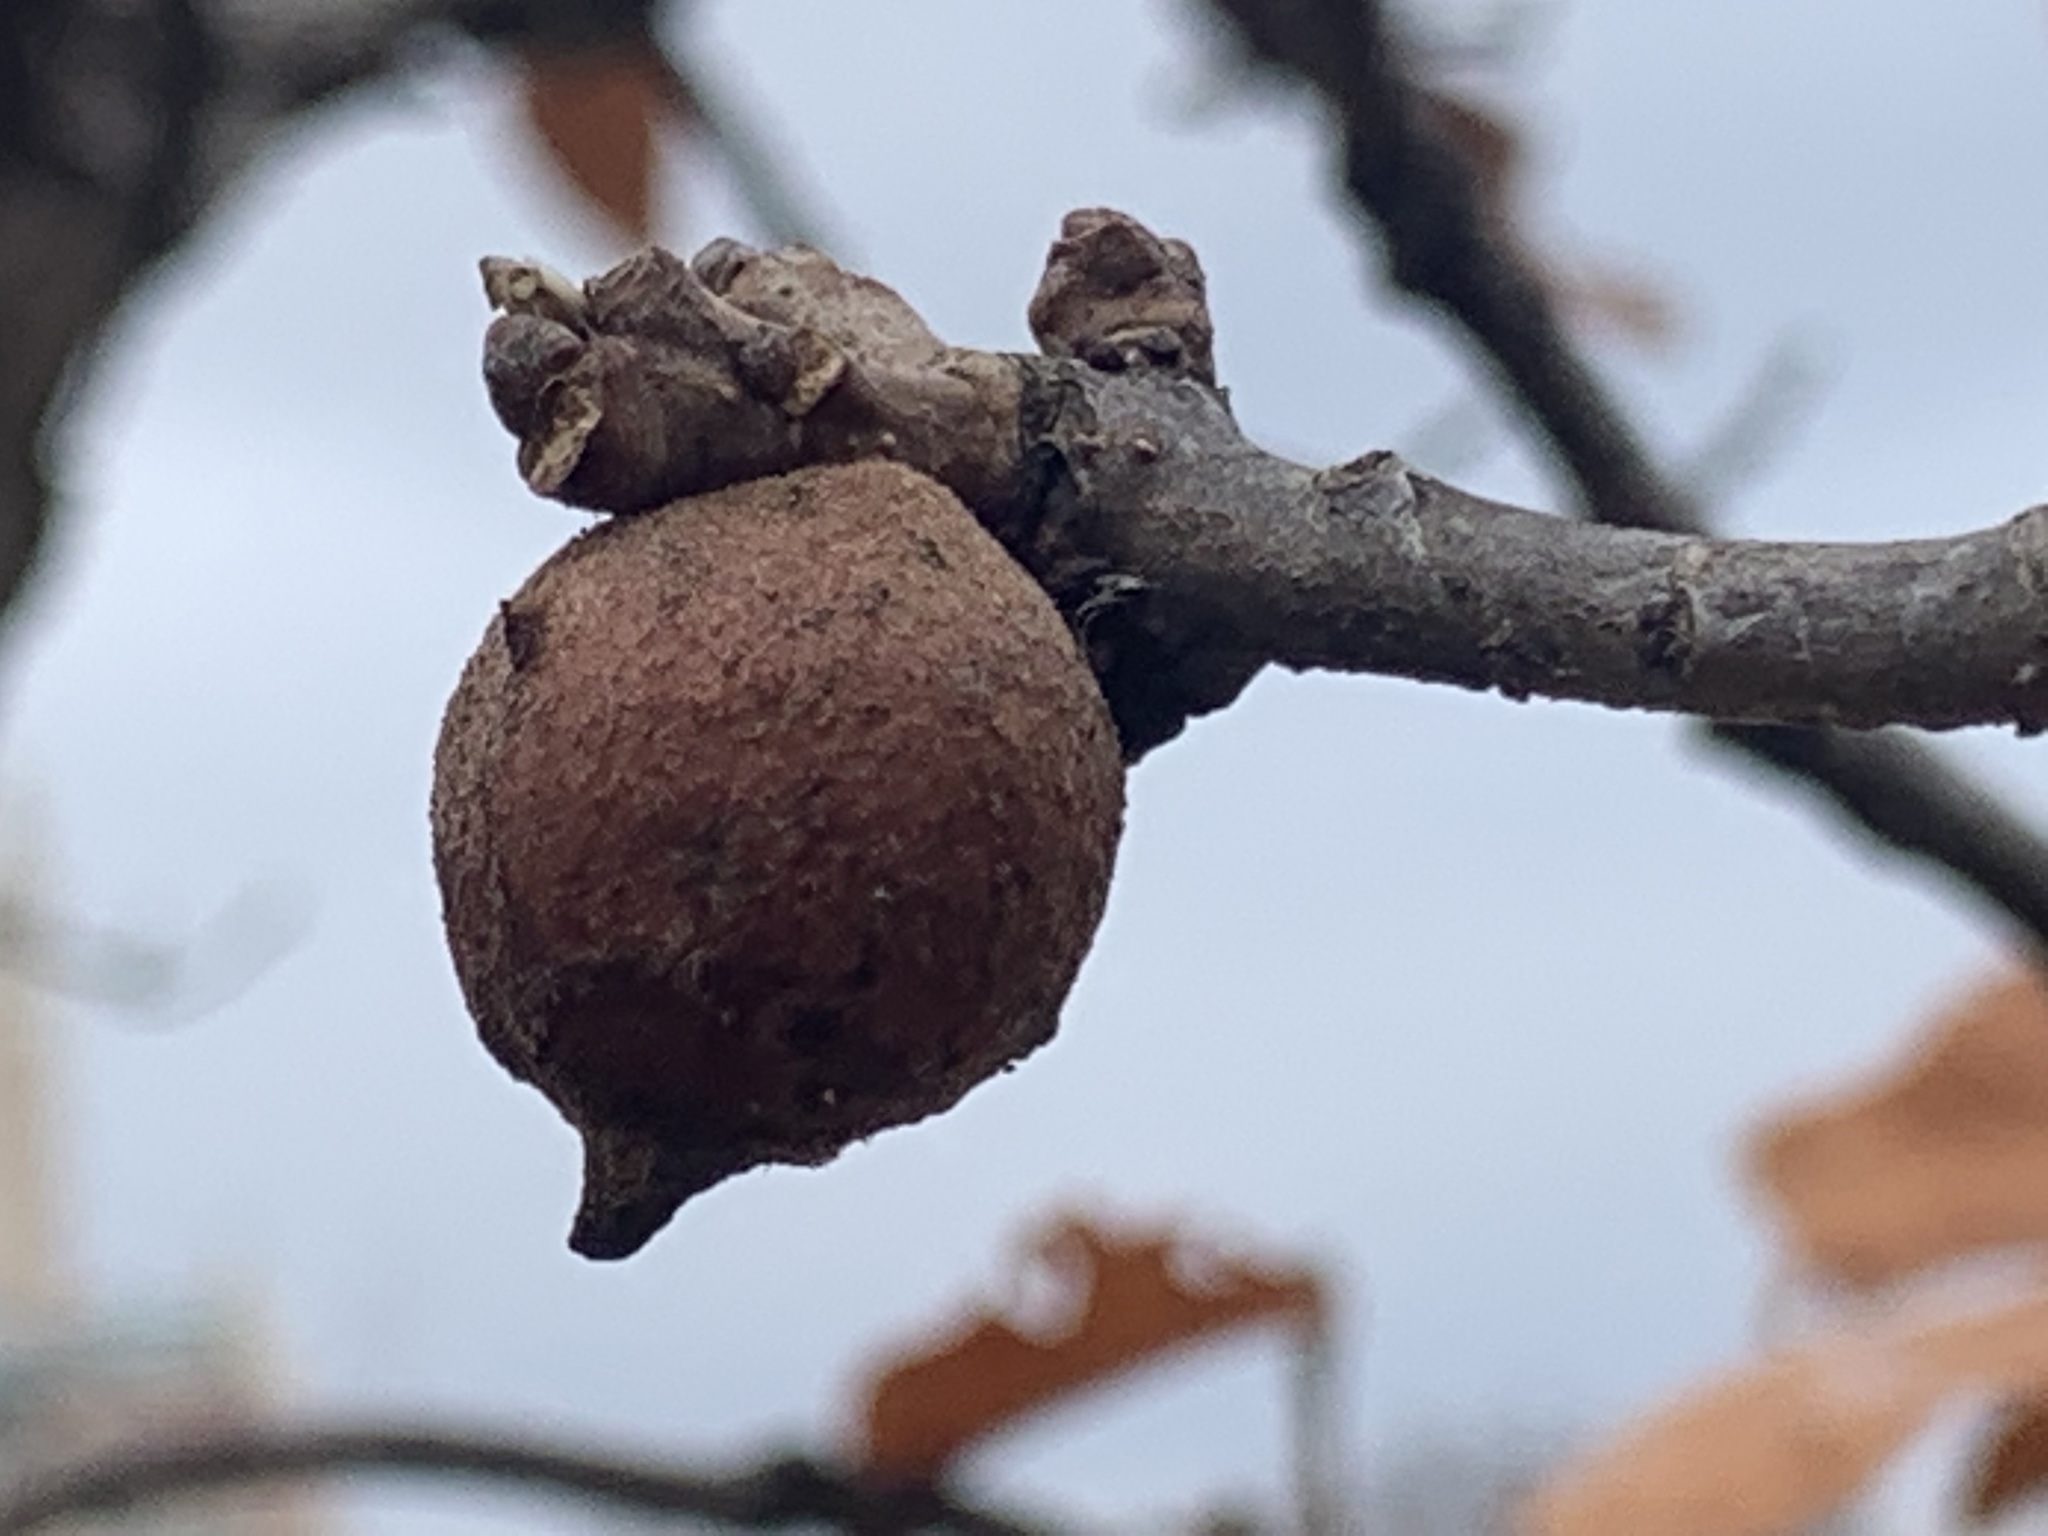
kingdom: Animalia
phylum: Arthropoda
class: Insecta
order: Hymenoptera
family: Cynipidae
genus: Disholcaspis
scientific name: Disholcaspis
